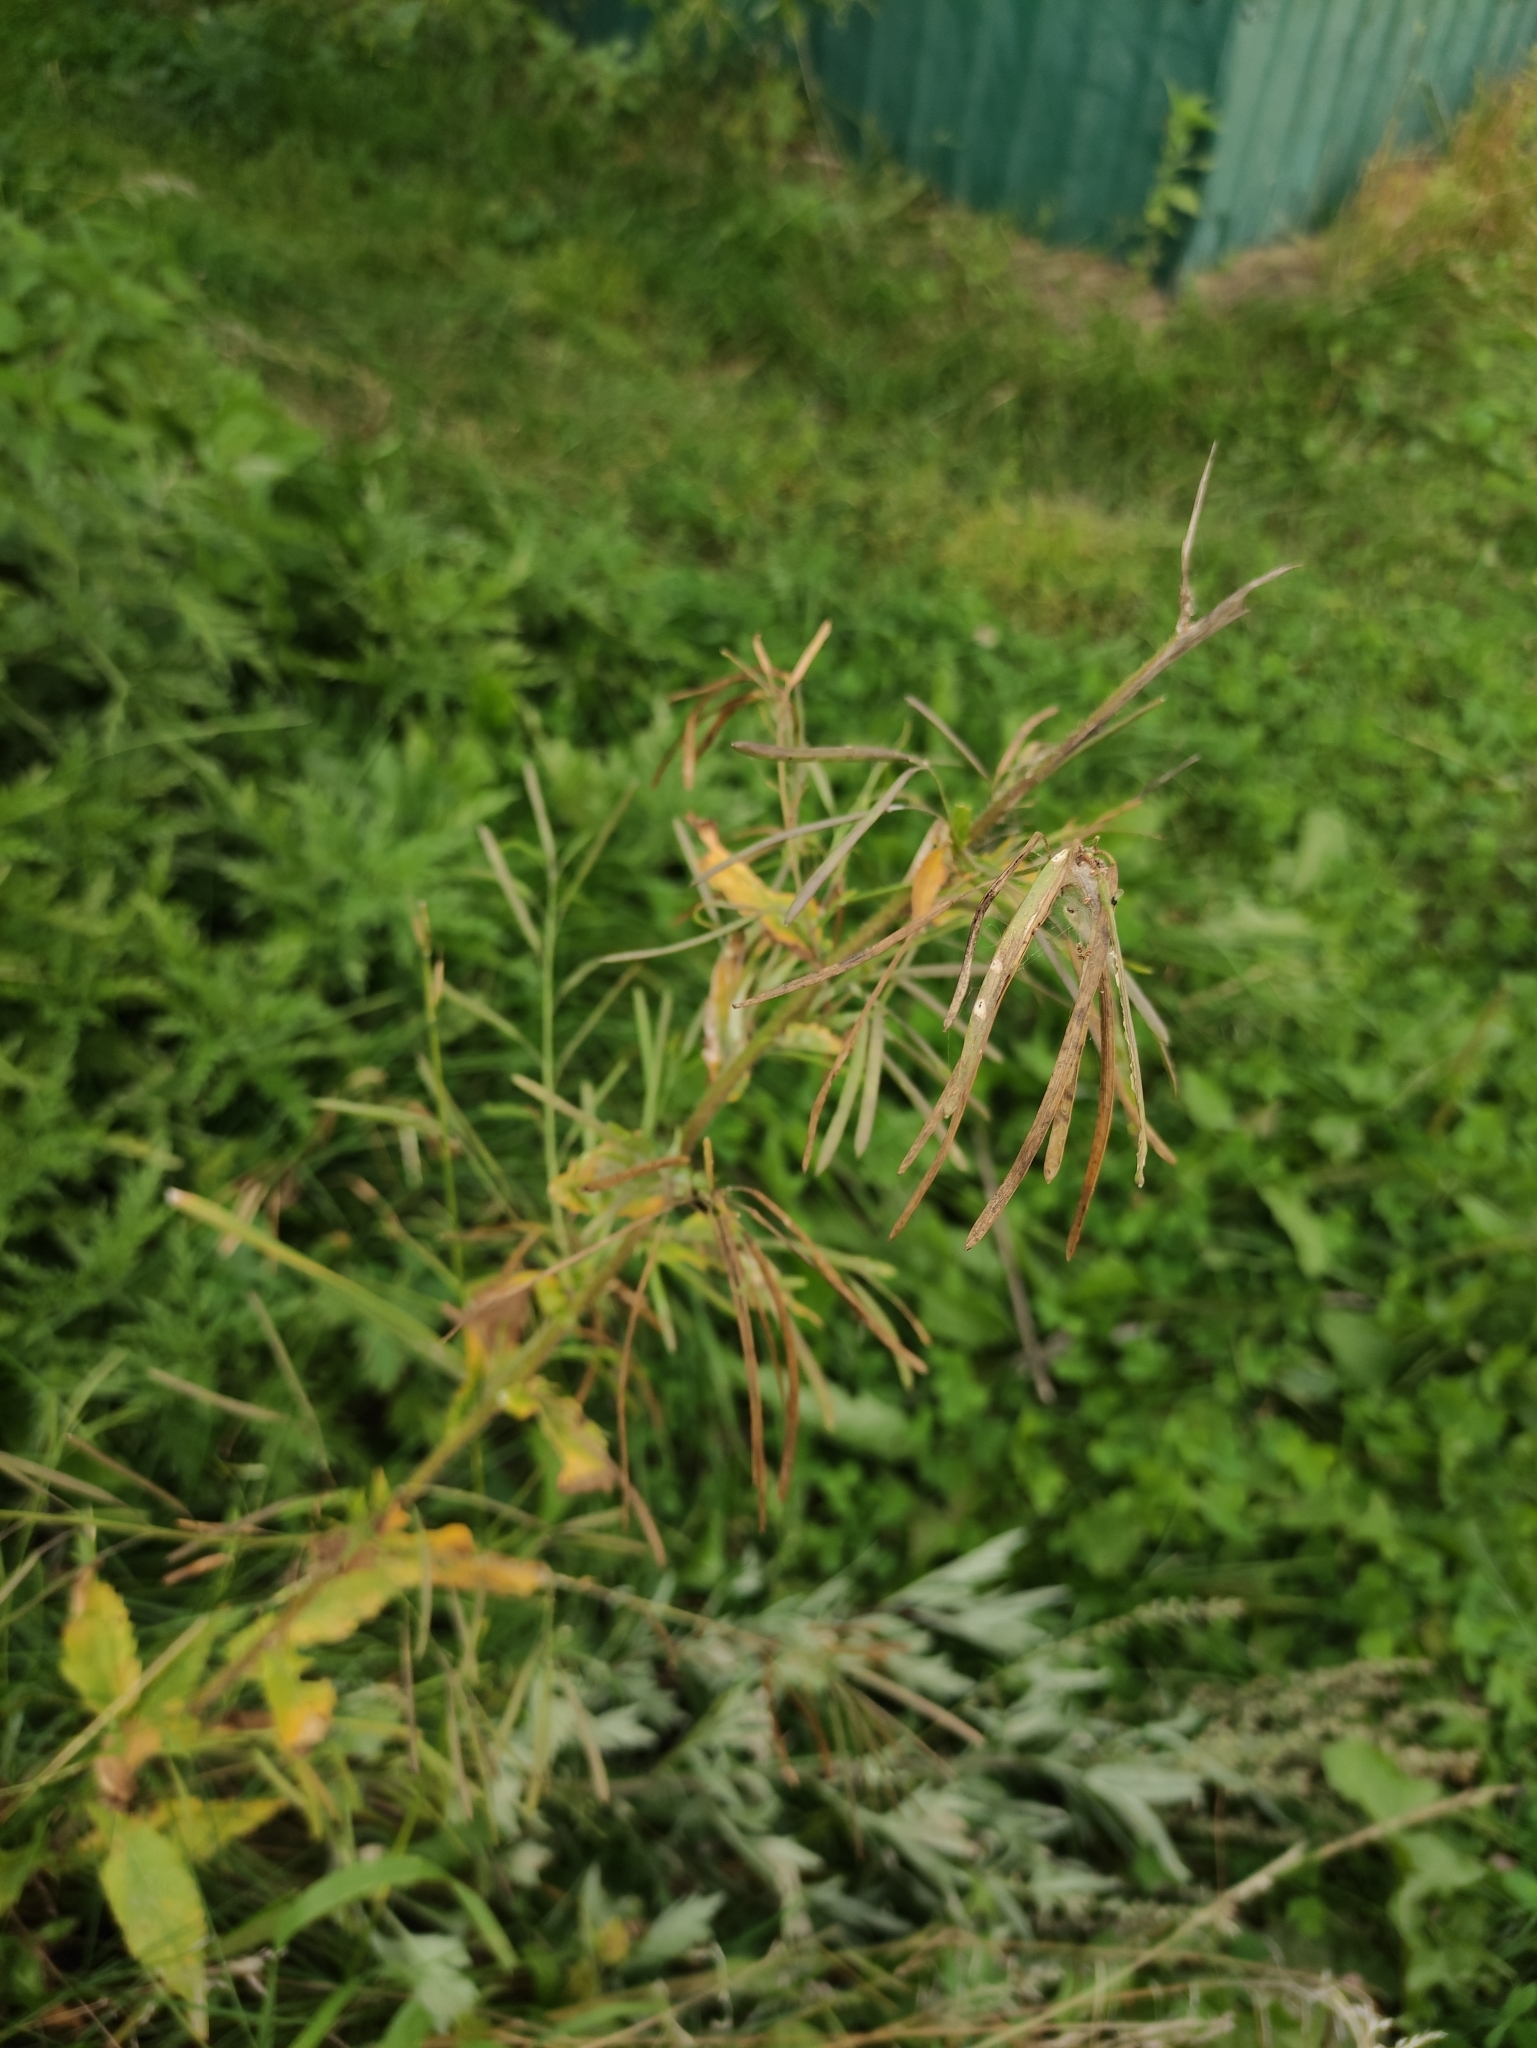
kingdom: Plantae
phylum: Tracheophyta
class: Magnoliopsida
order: Brassicales
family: Brassicaceae
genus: Catolobus
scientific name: Catolobus pendulus
